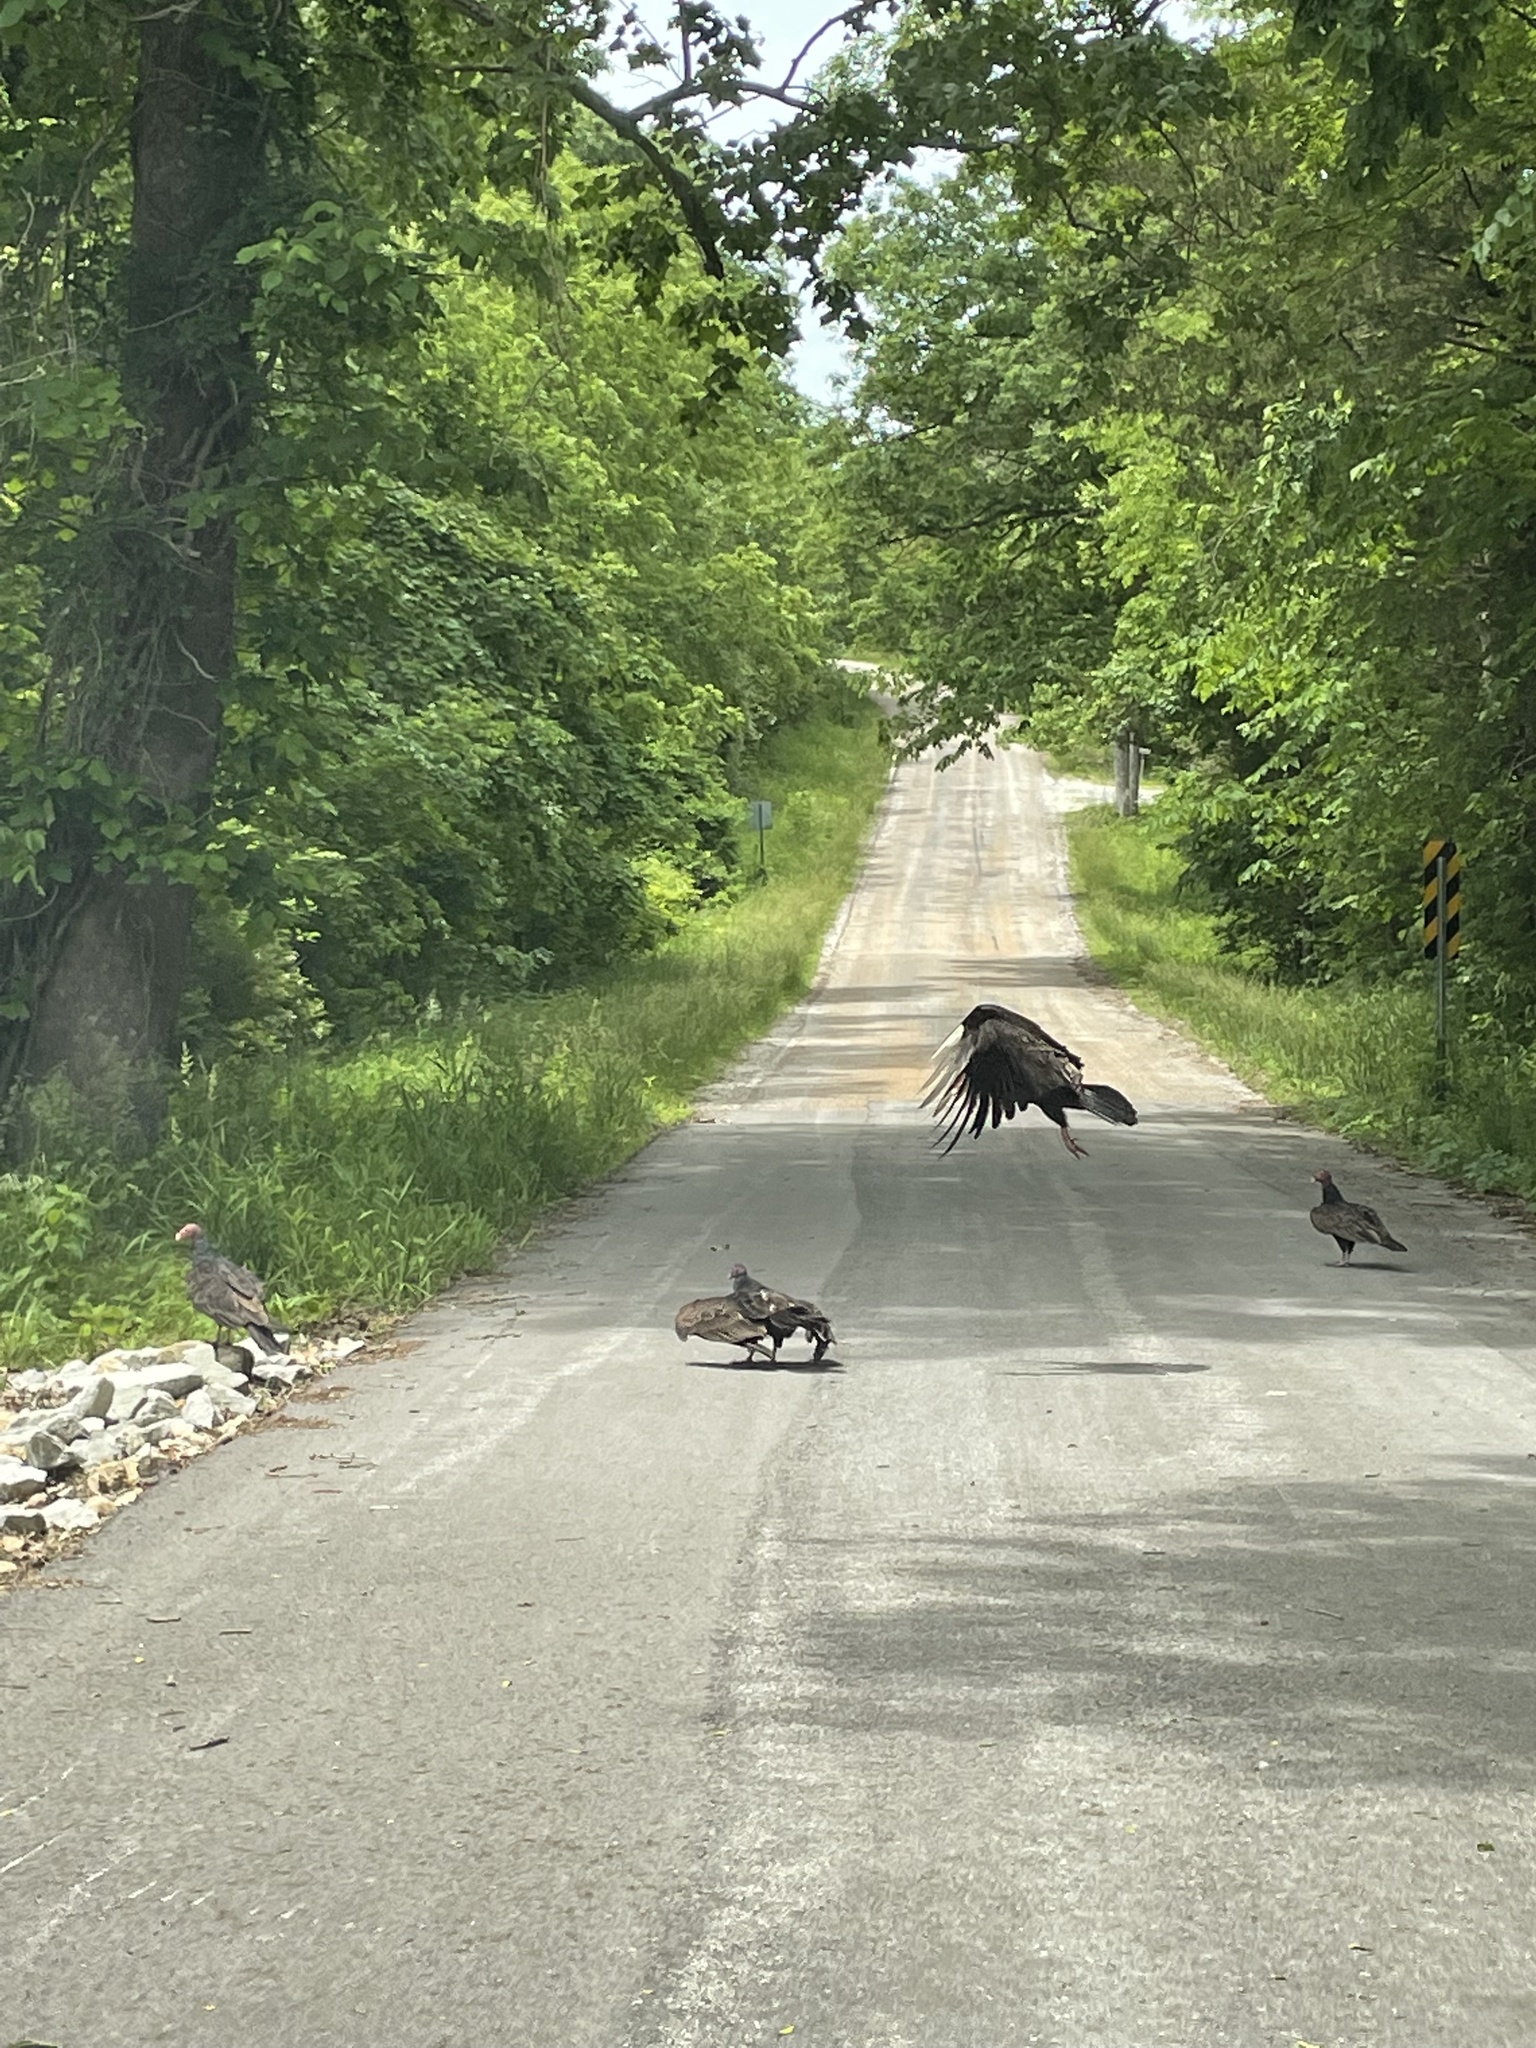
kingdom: Animalia
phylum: Chordata
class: Aves
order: Accipitriformes
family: Cathartidae
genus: Cathartes
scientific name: Cathartes aura
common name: Turkey vulture
